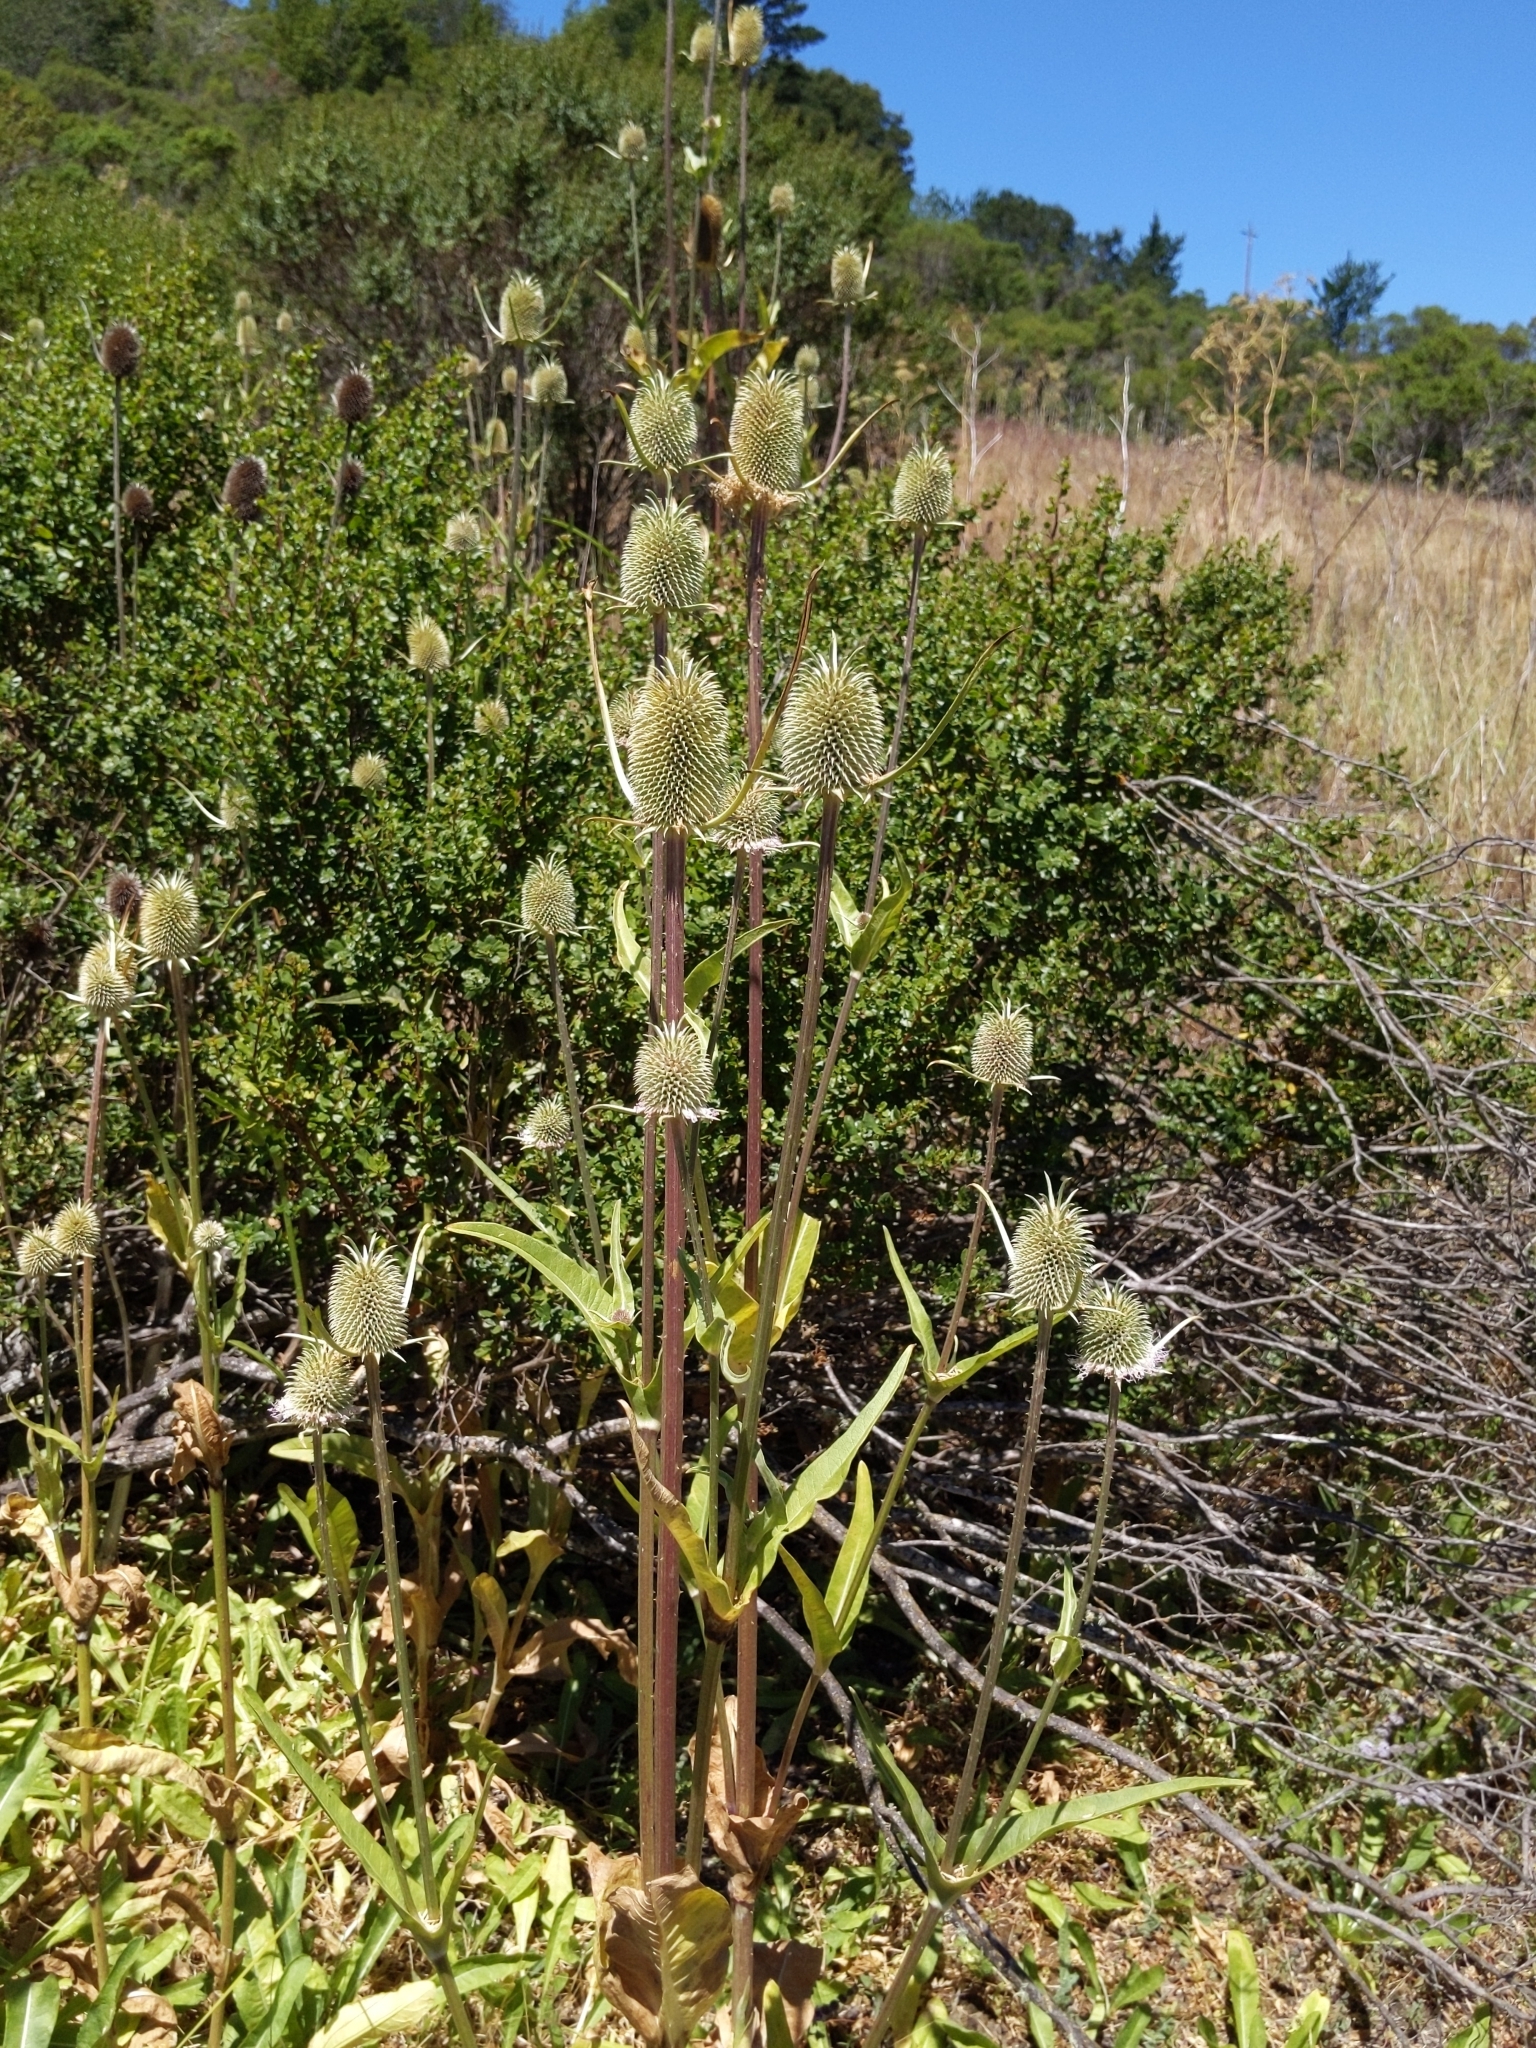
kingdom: Plantae
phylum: Tracheophyta
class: Magnoliopsida
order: Dipsacales
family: Caprifoliaceae
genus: Dipsacus
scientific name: Dipsacus sativus
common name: Fuller's teasel
